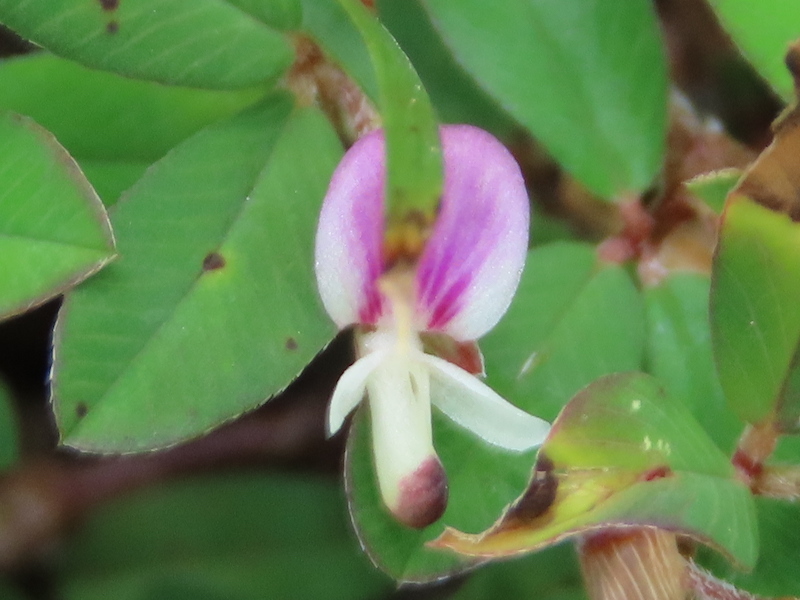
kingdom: Plantae
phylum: Tracheophyta
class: Magnoliopsida
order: Fabales
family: Fabaceae
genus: Kummerowia
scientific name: Kummerowia striata
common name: Japanese clover
